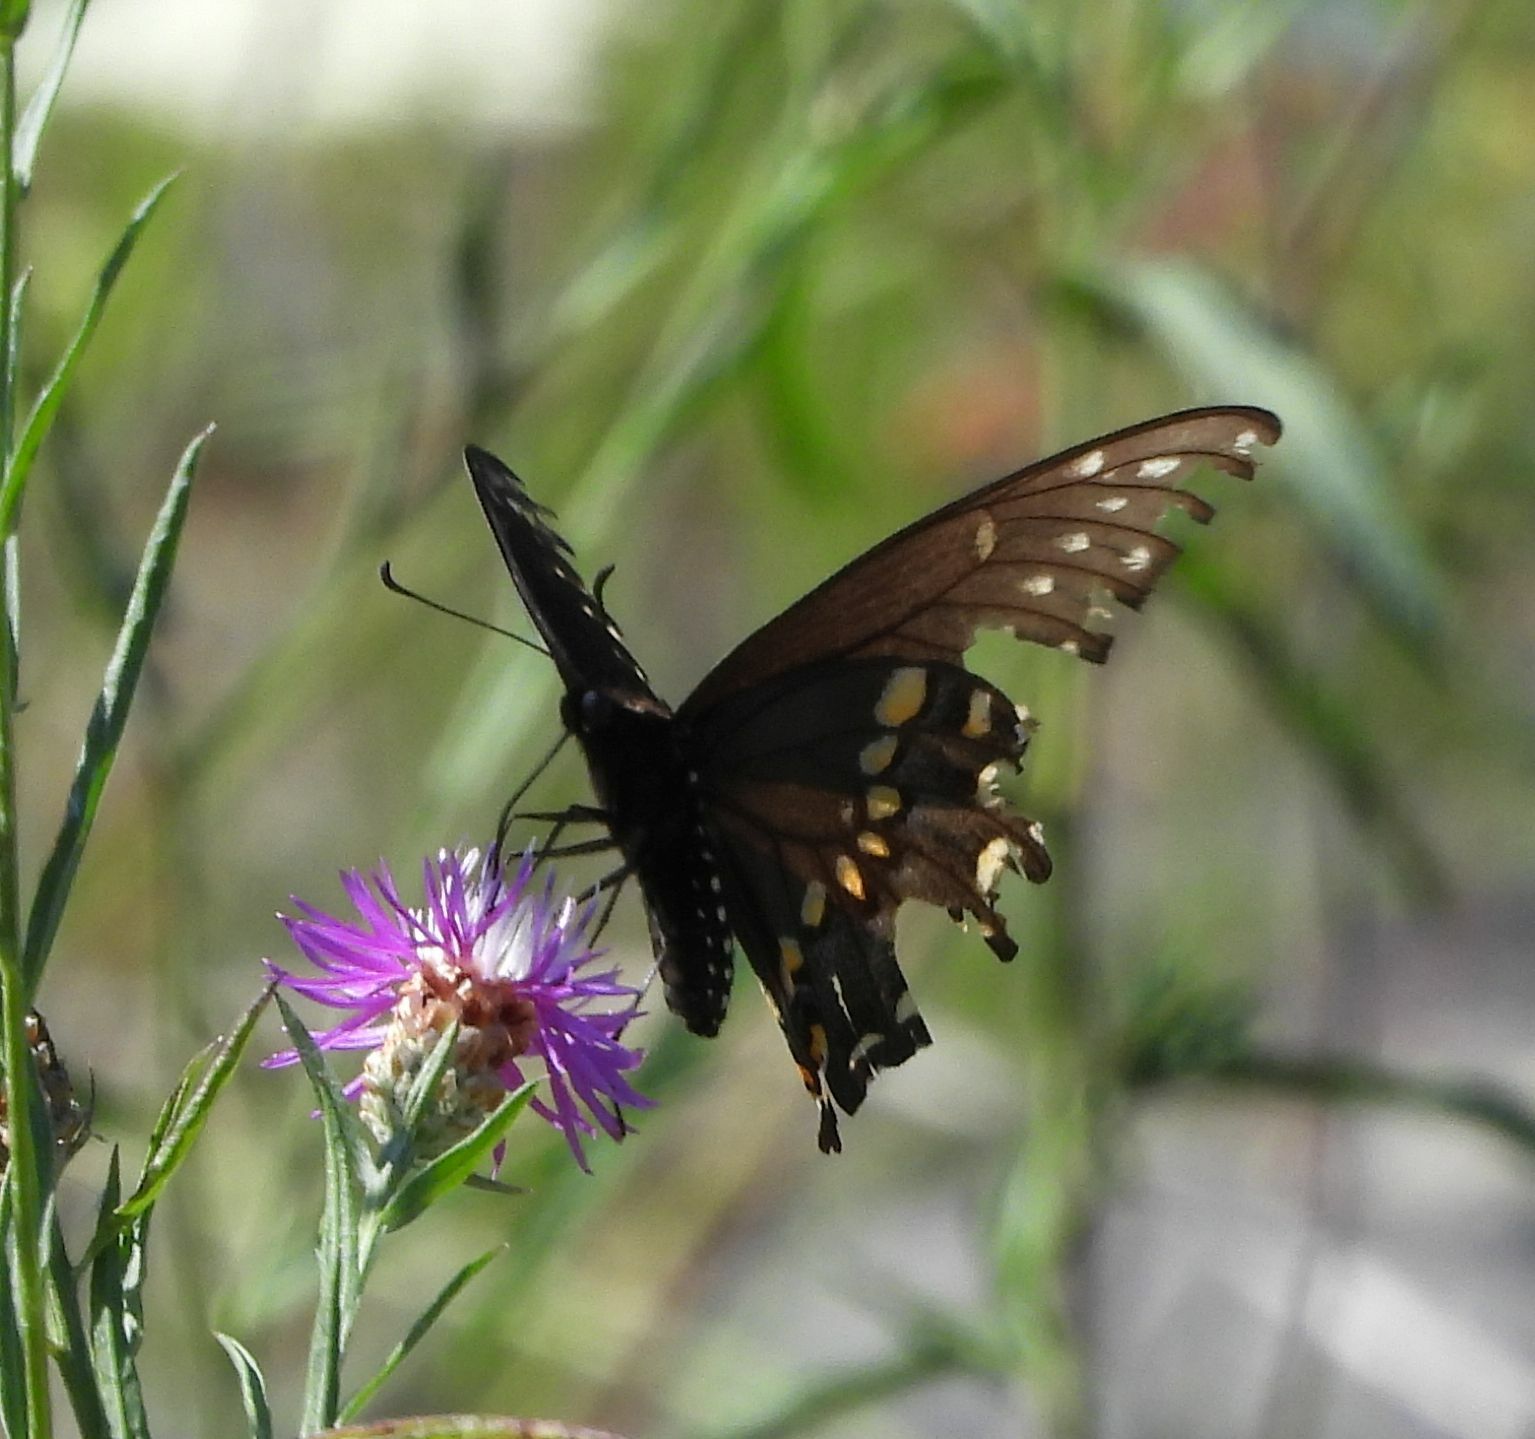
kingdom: Animalia
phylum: Arthropoda
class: Insecta
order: Lepidoptera
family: Papilionidae
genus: Papilio
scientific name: Papilio polyxenes
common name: Black swallowtail
